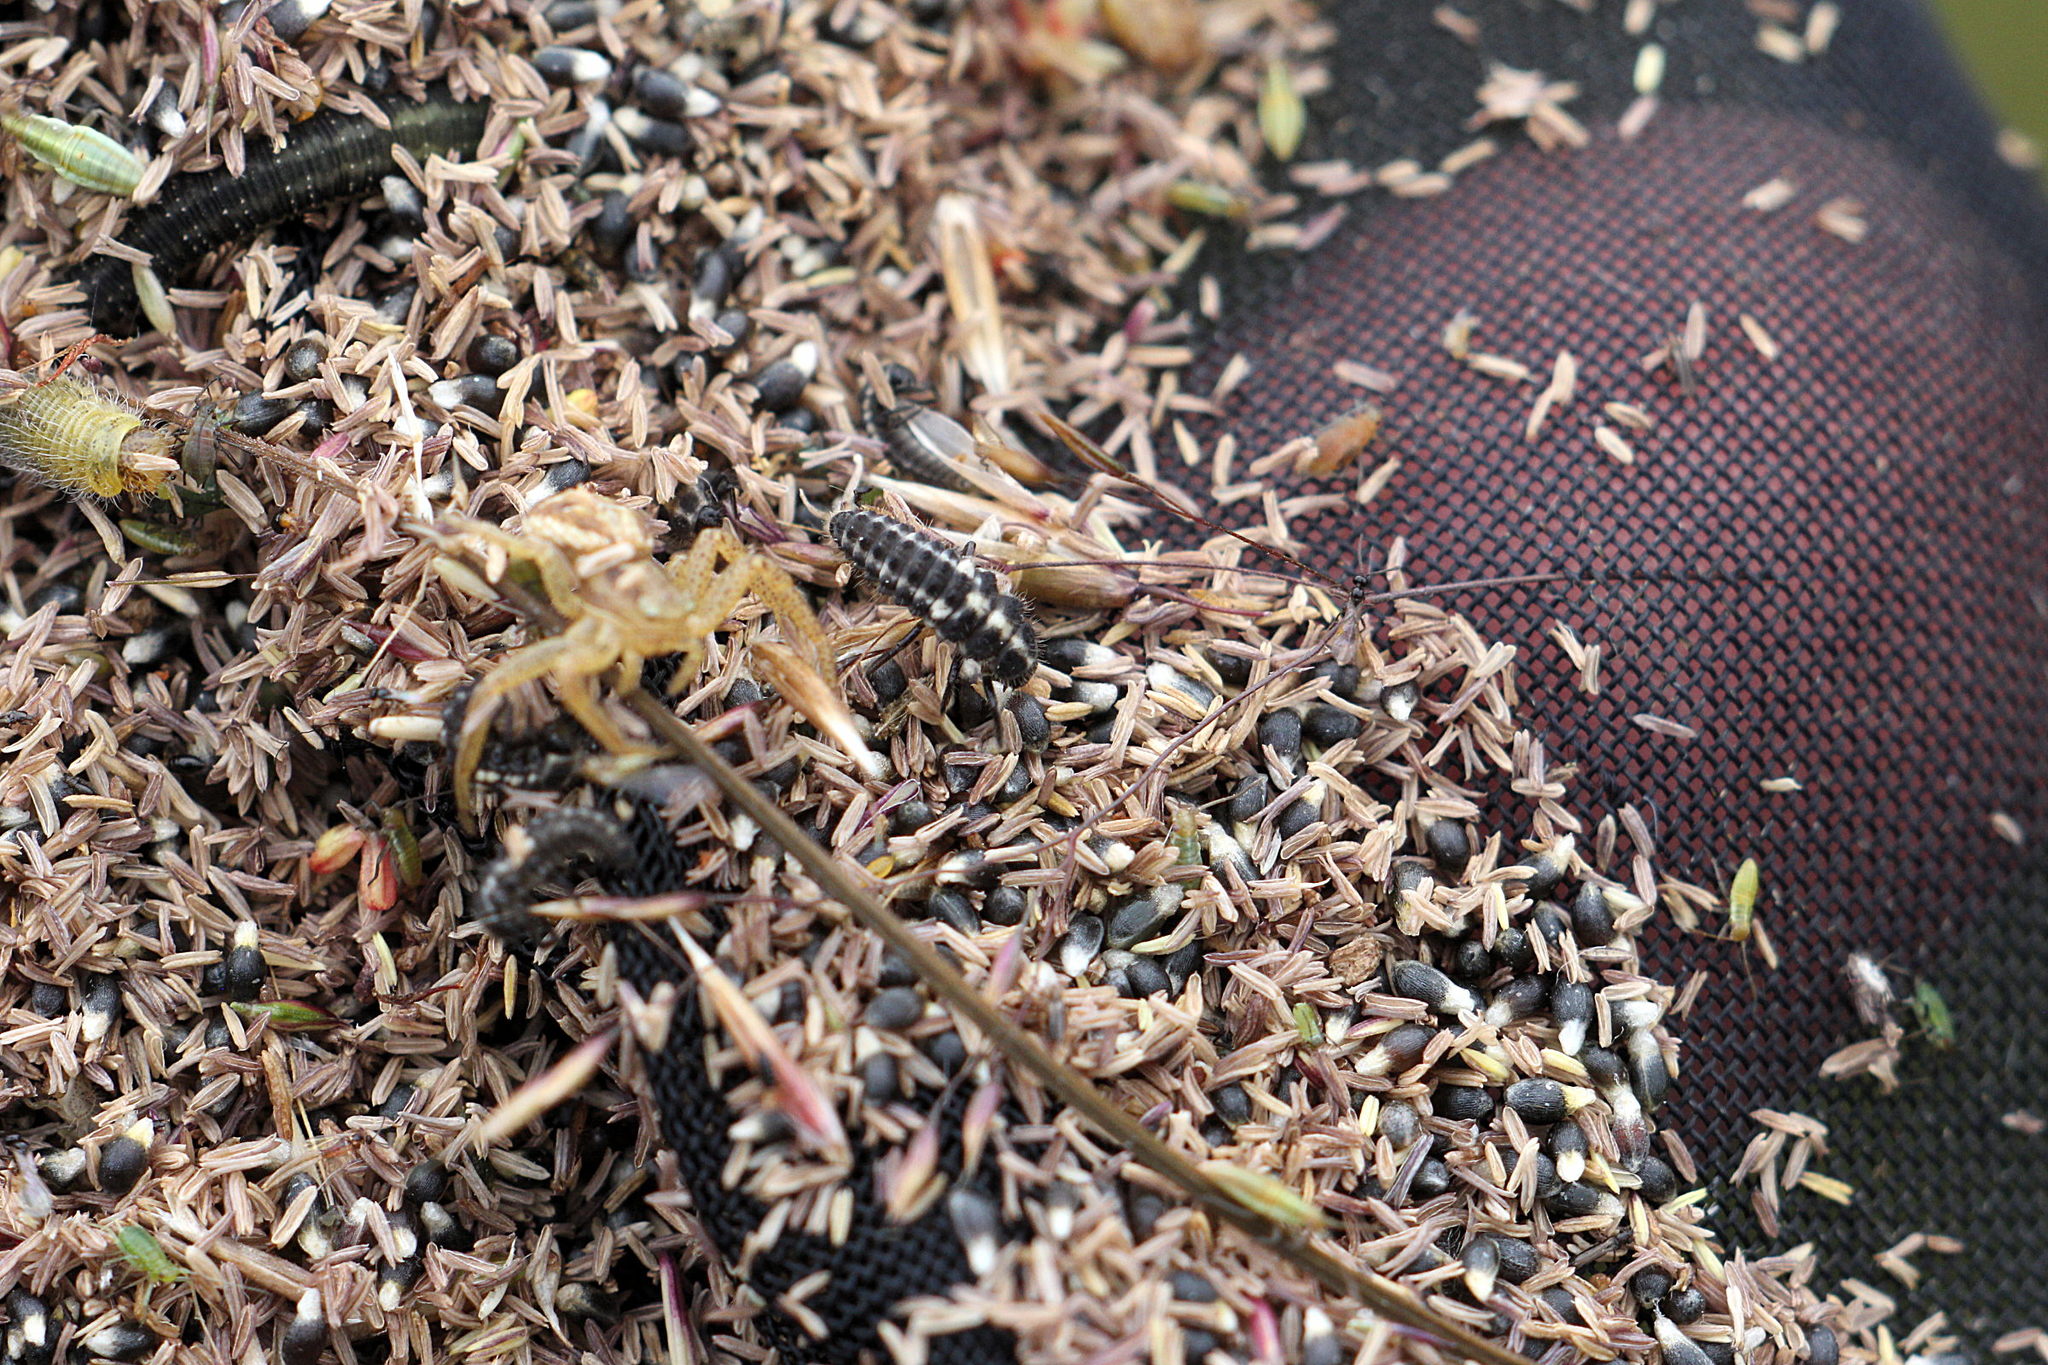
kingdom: Animalia
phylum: Arthropoda
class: Insecta
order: Coleoptera
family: Coccinellidae
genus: Coccinula
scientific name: Coccinula quatuordecimpustulata
